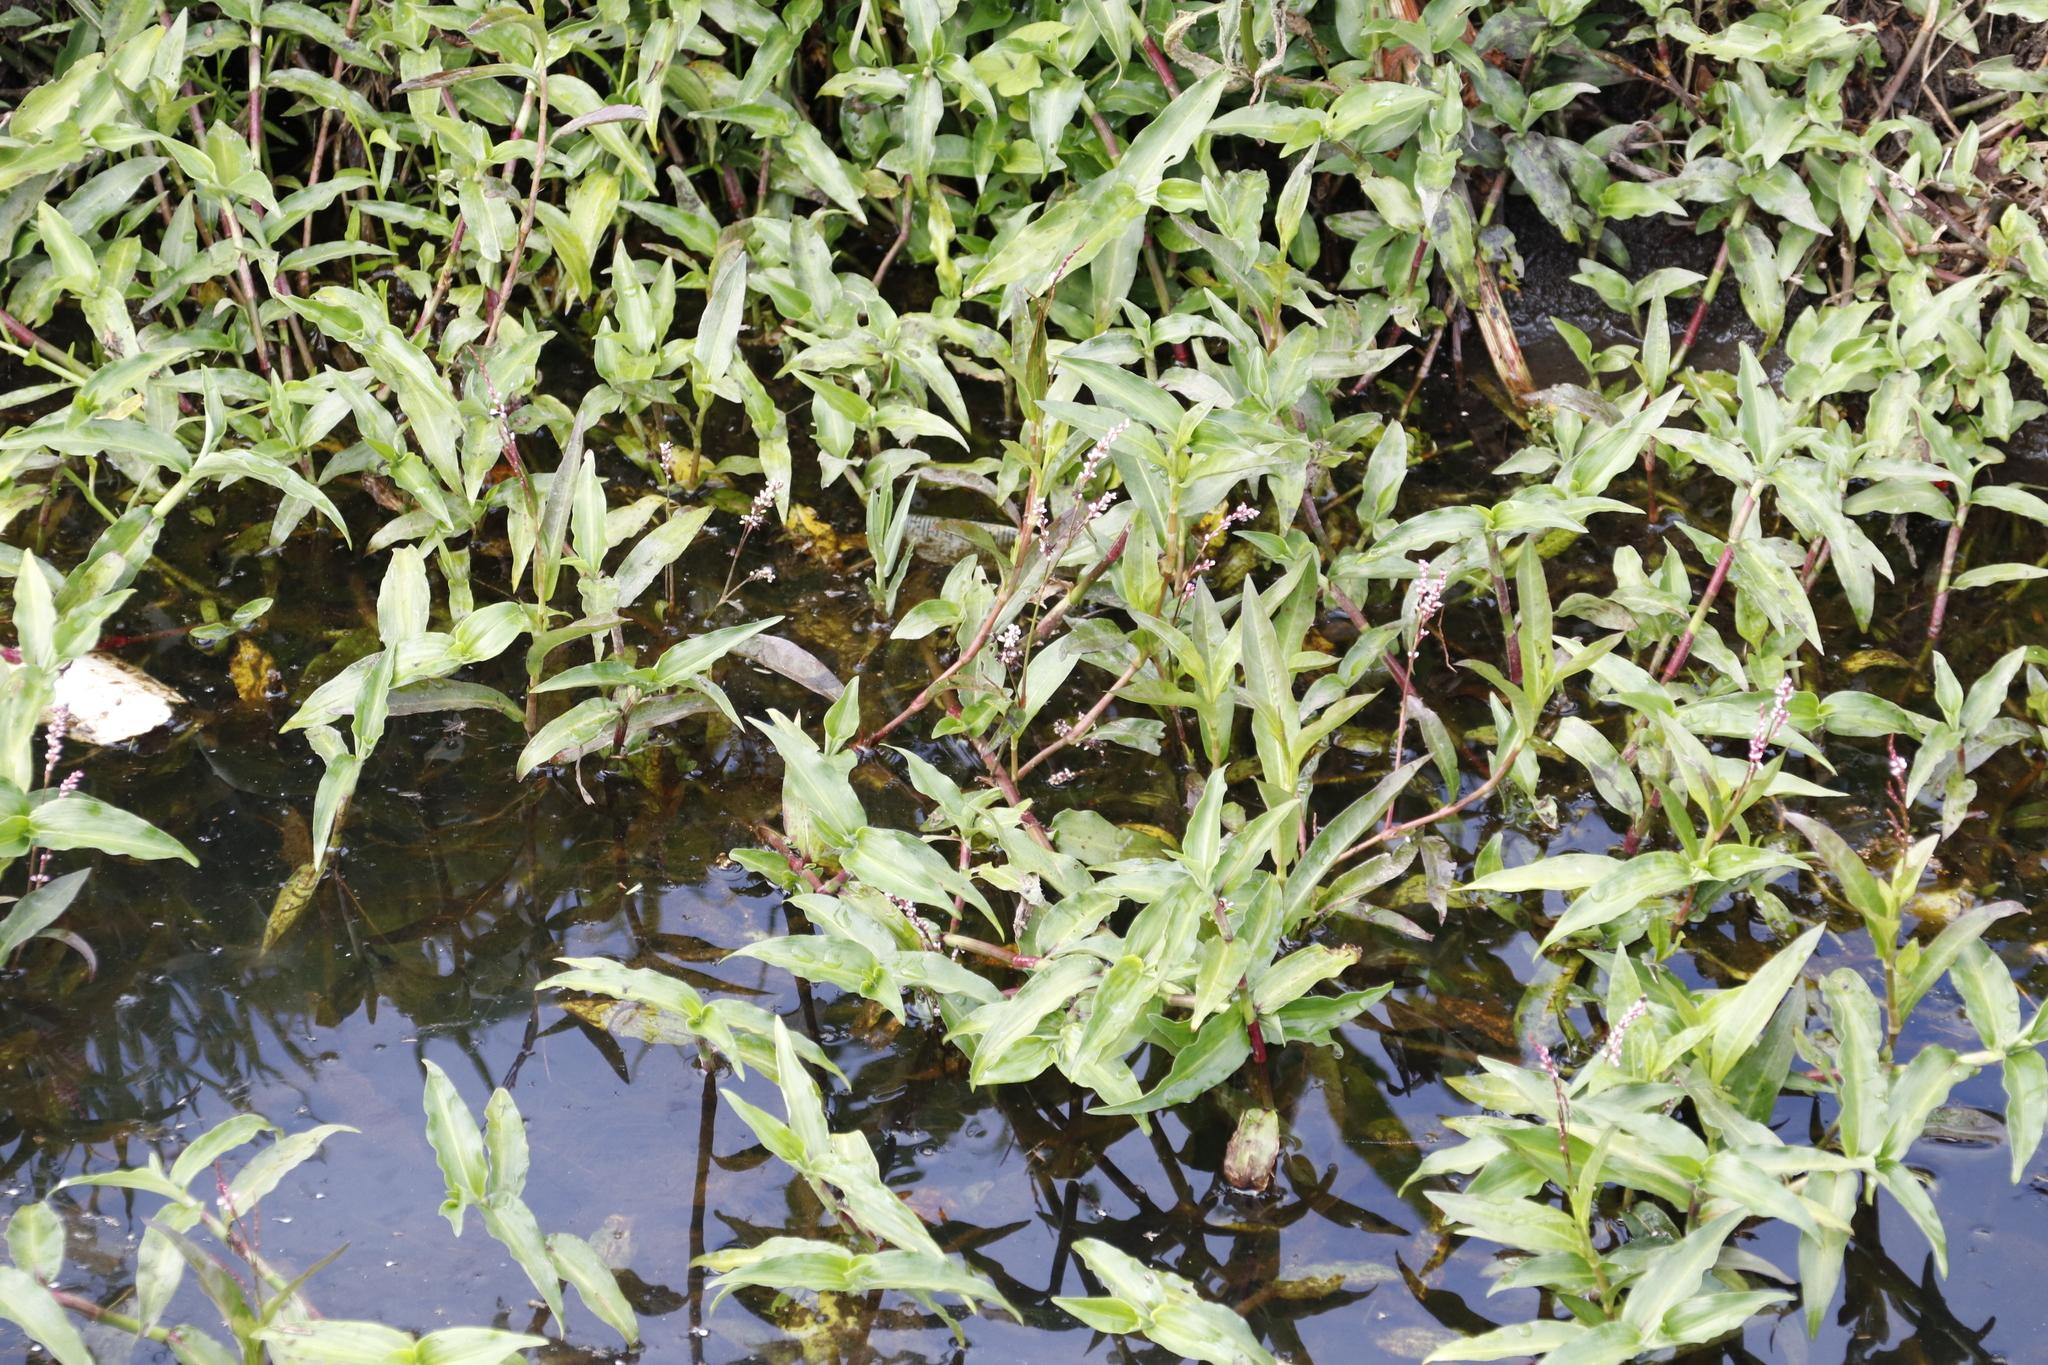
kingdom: Plantae
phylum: Tracheophyta
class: Magnoliopsida
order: Caryophyllales
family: Polygonaceae
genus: Persicaria
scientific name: Persicaria decipiens
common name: Willow-weed
